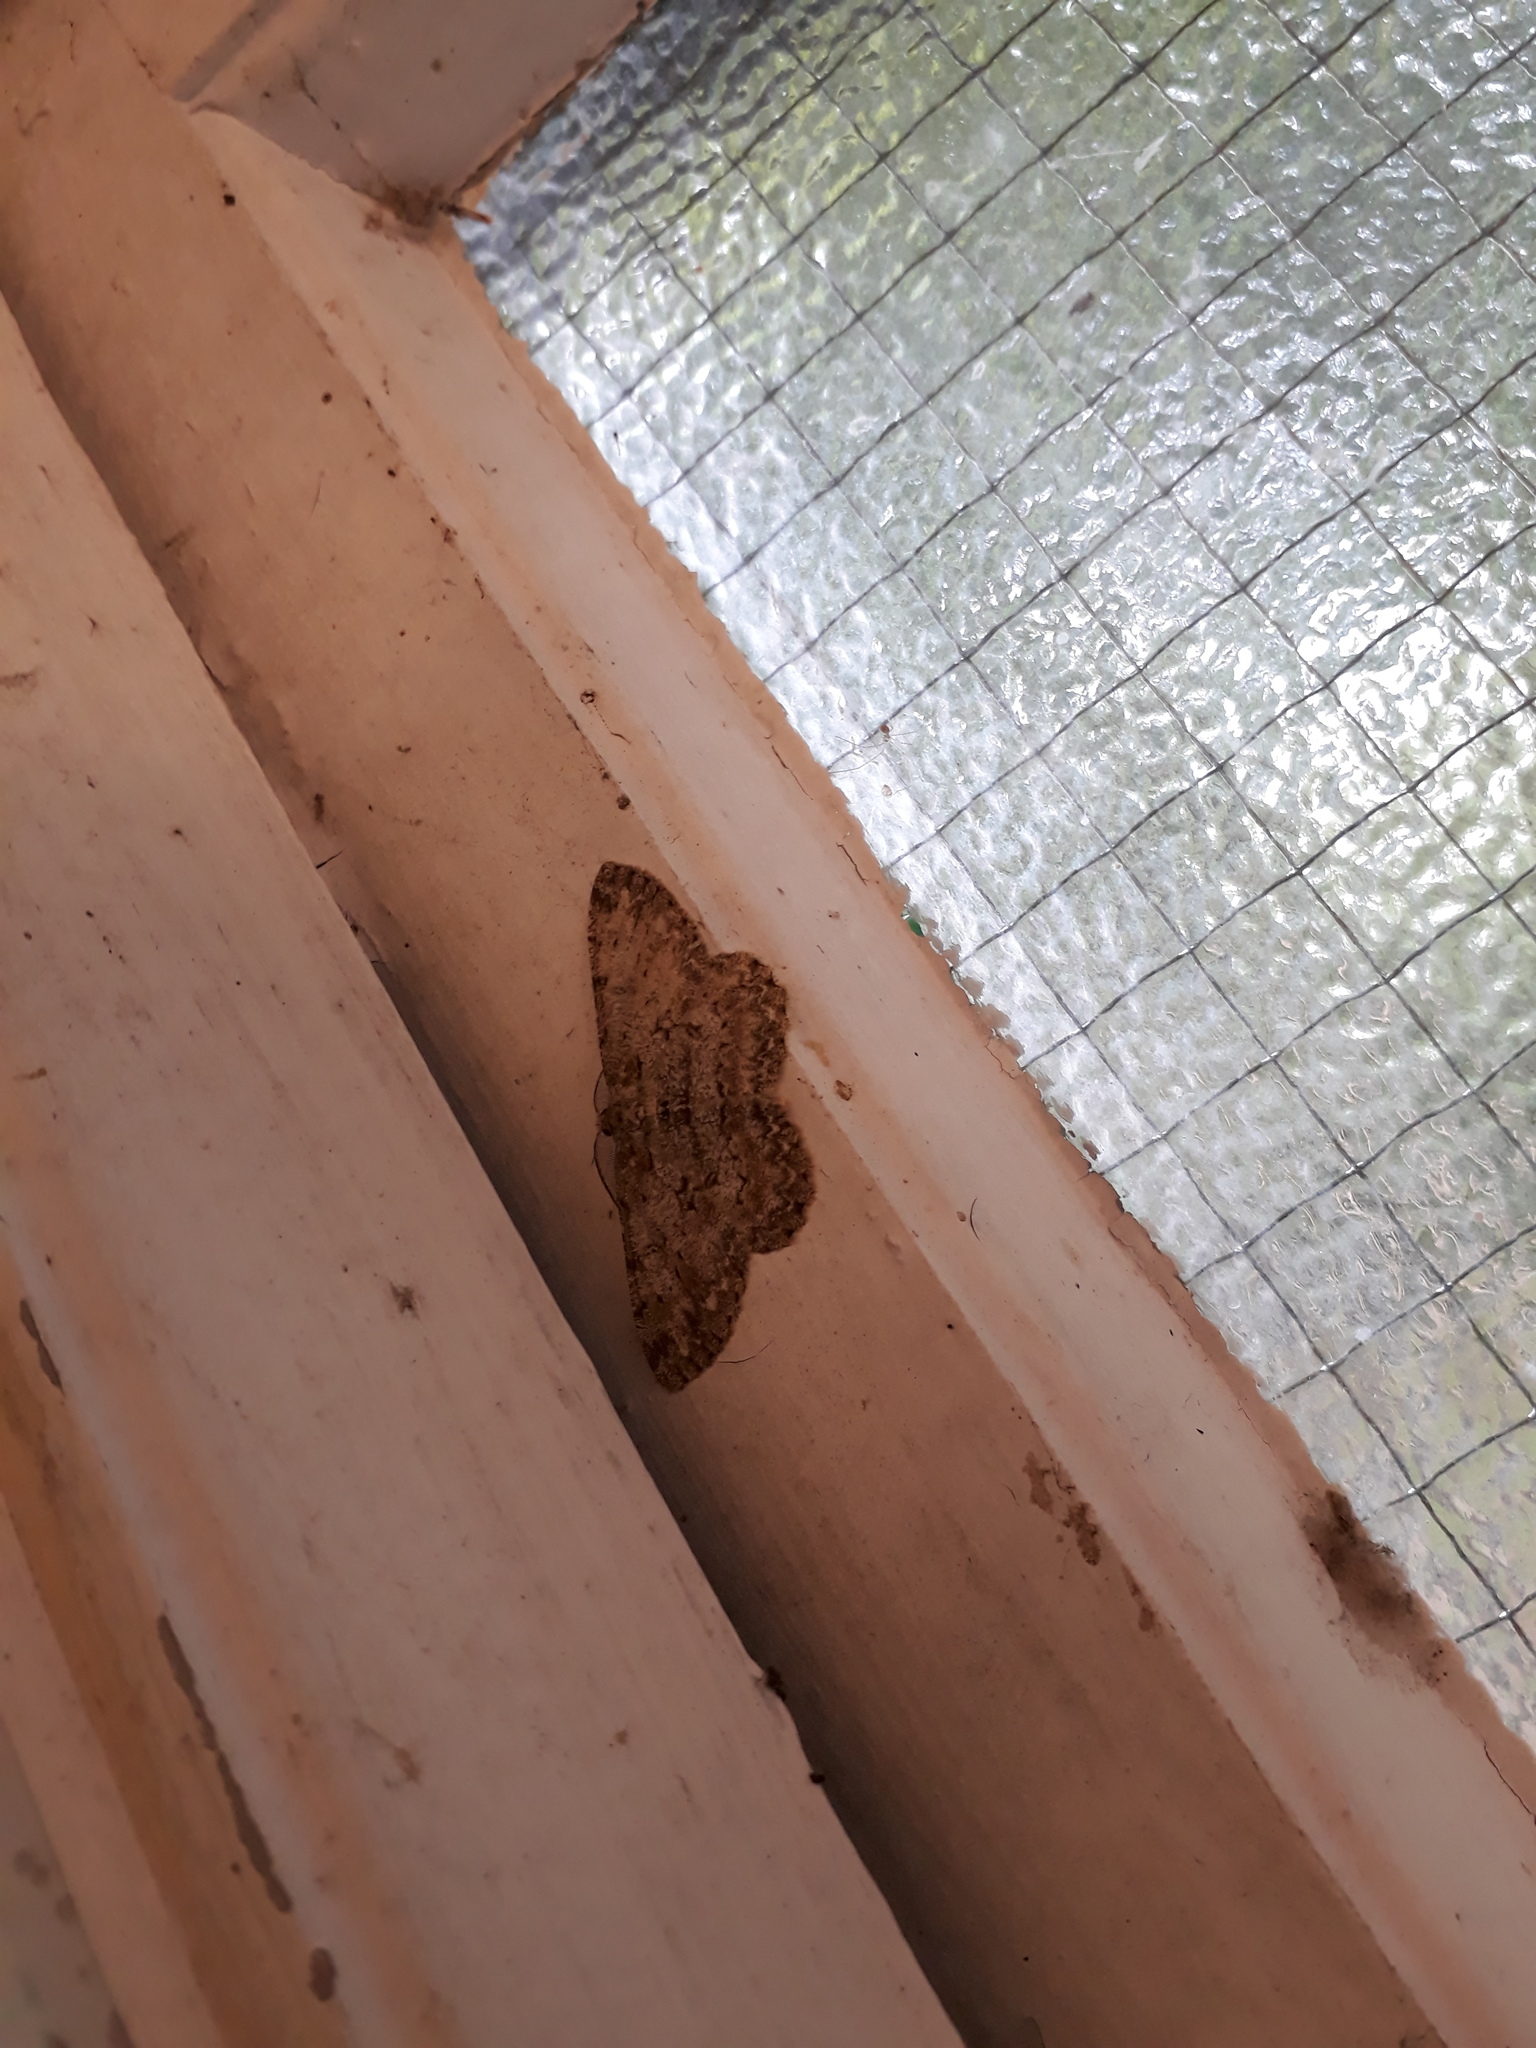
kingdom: Animalia
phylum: Arthropoda
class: Insecta
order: Lepidoptera
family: Geometridae
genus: Hypomecis
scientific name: Hypomecis punctinalis
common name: Pale oak beauty
